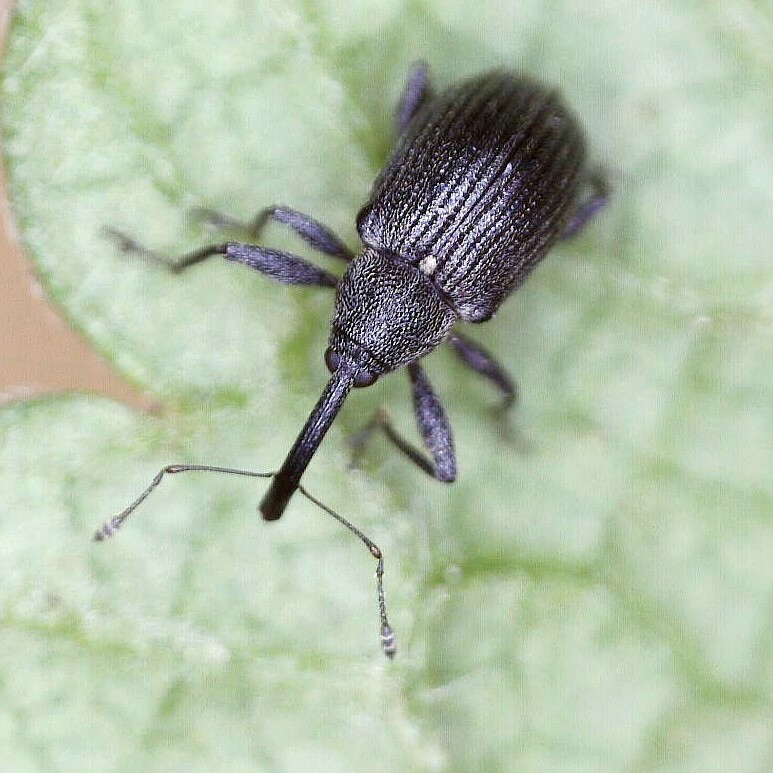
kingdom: Animalia
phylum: Arthropoda
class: Insecta
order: Coleoptera
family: Curculionidae
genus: Anthonomus
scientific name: Anthonomus rubi
